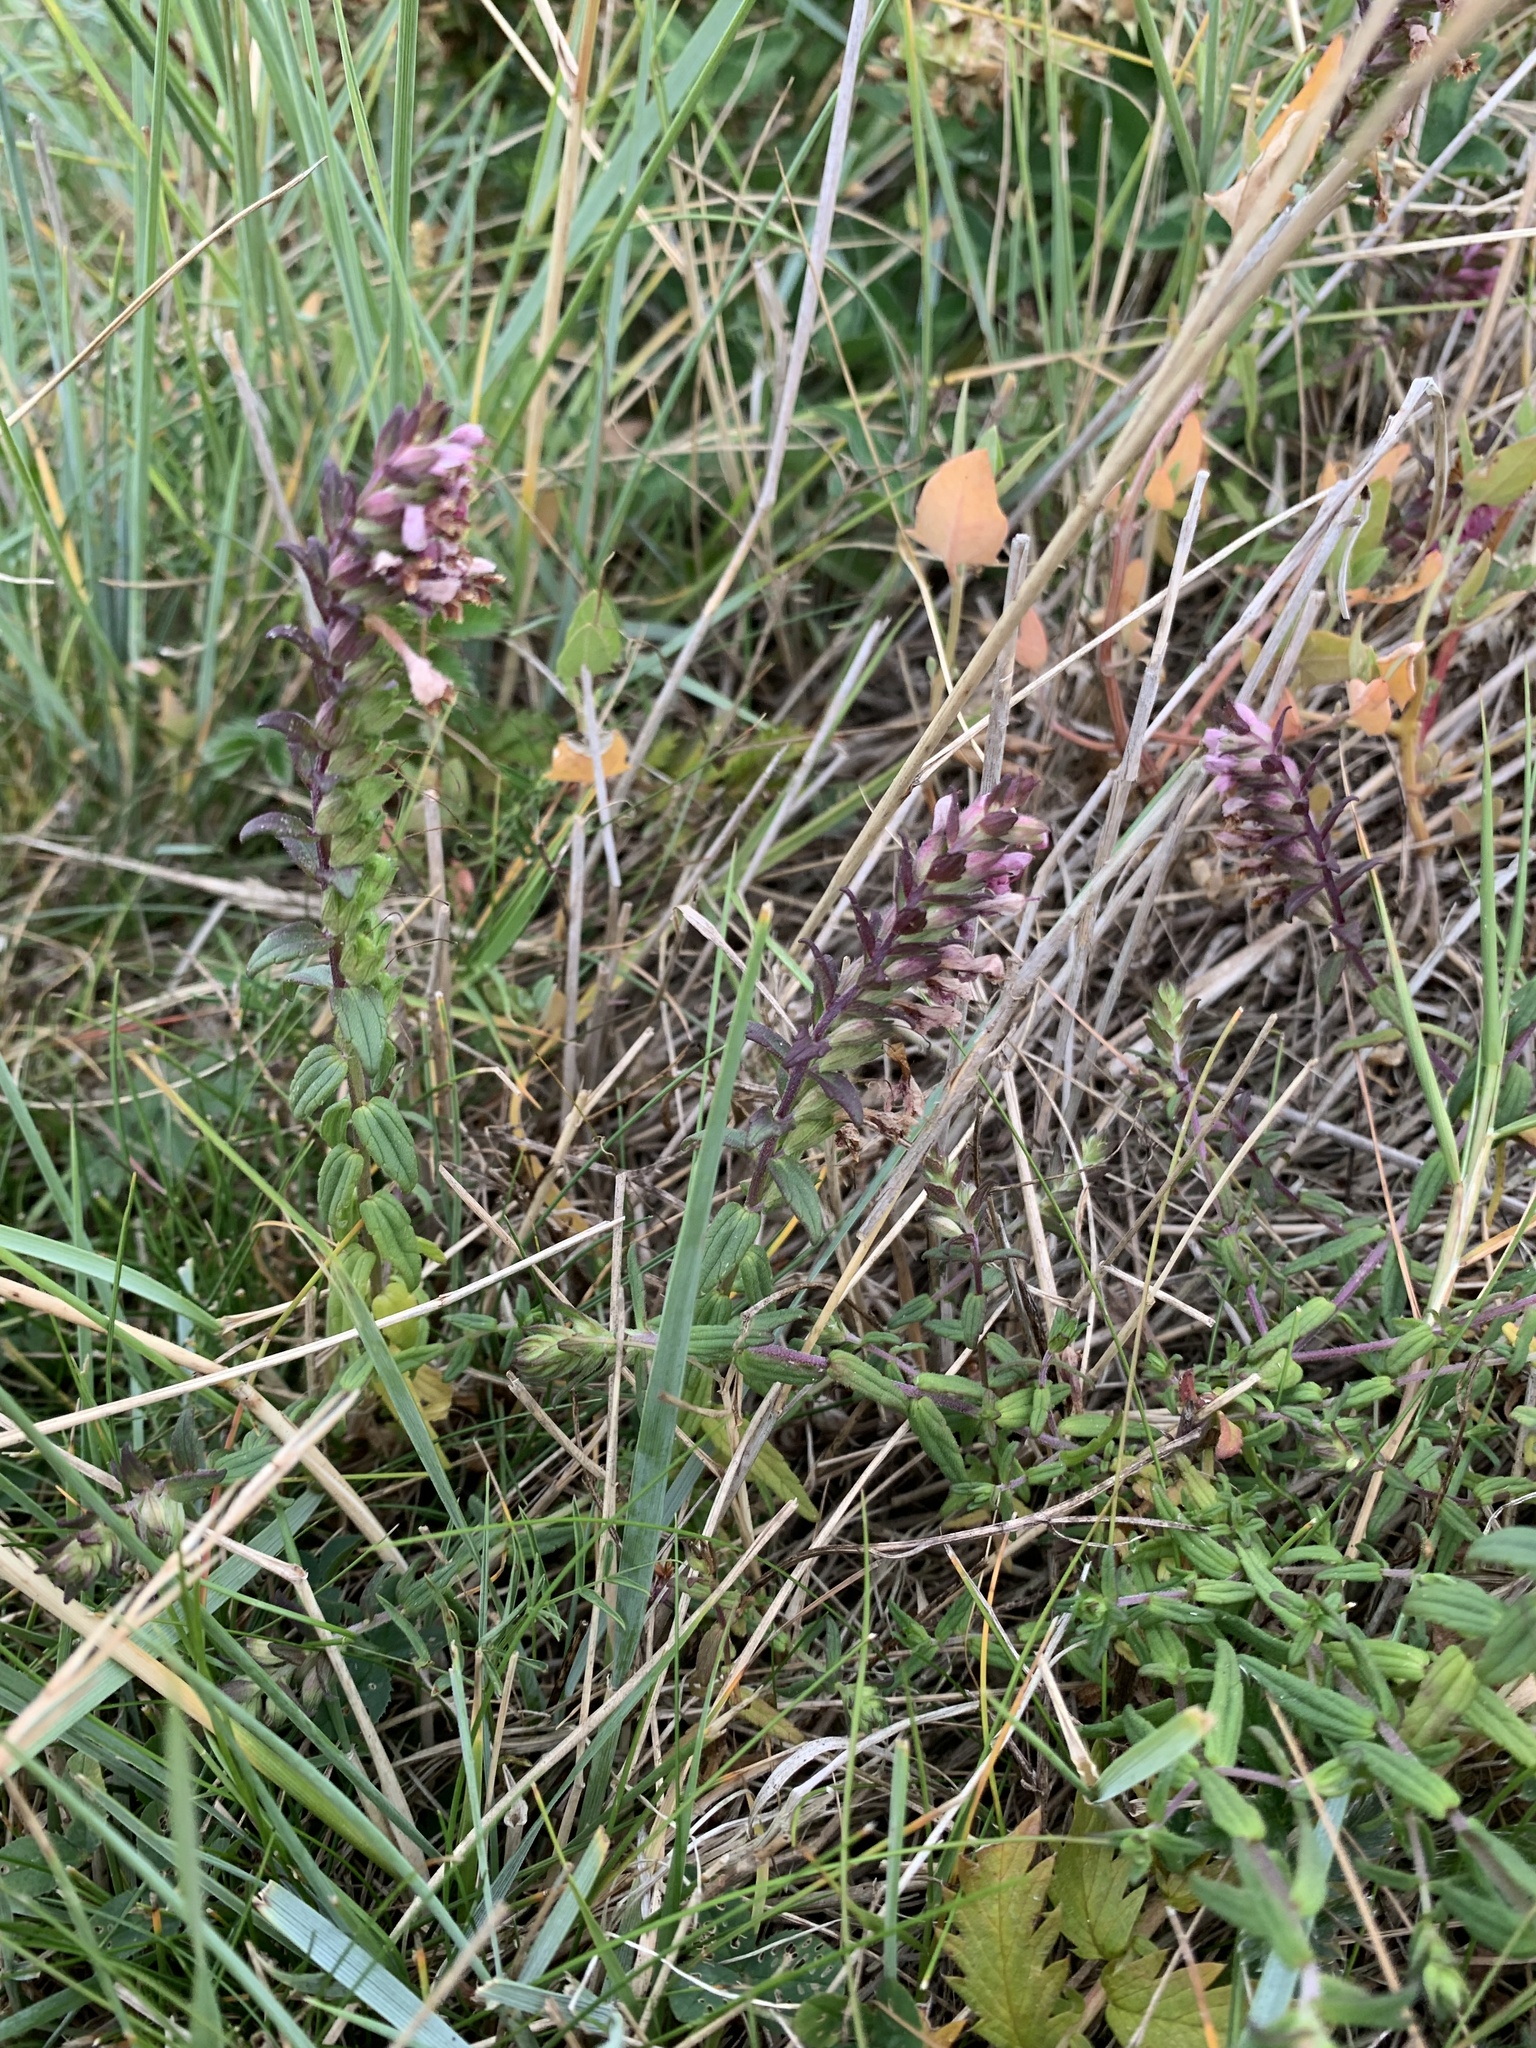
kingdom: Plantae
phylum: Tracheophyta
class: Magnoliopsida
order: Lamiales
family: Orobanchaceae
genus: Odontites
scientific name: Odontites vulgaris
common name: Broomrape
